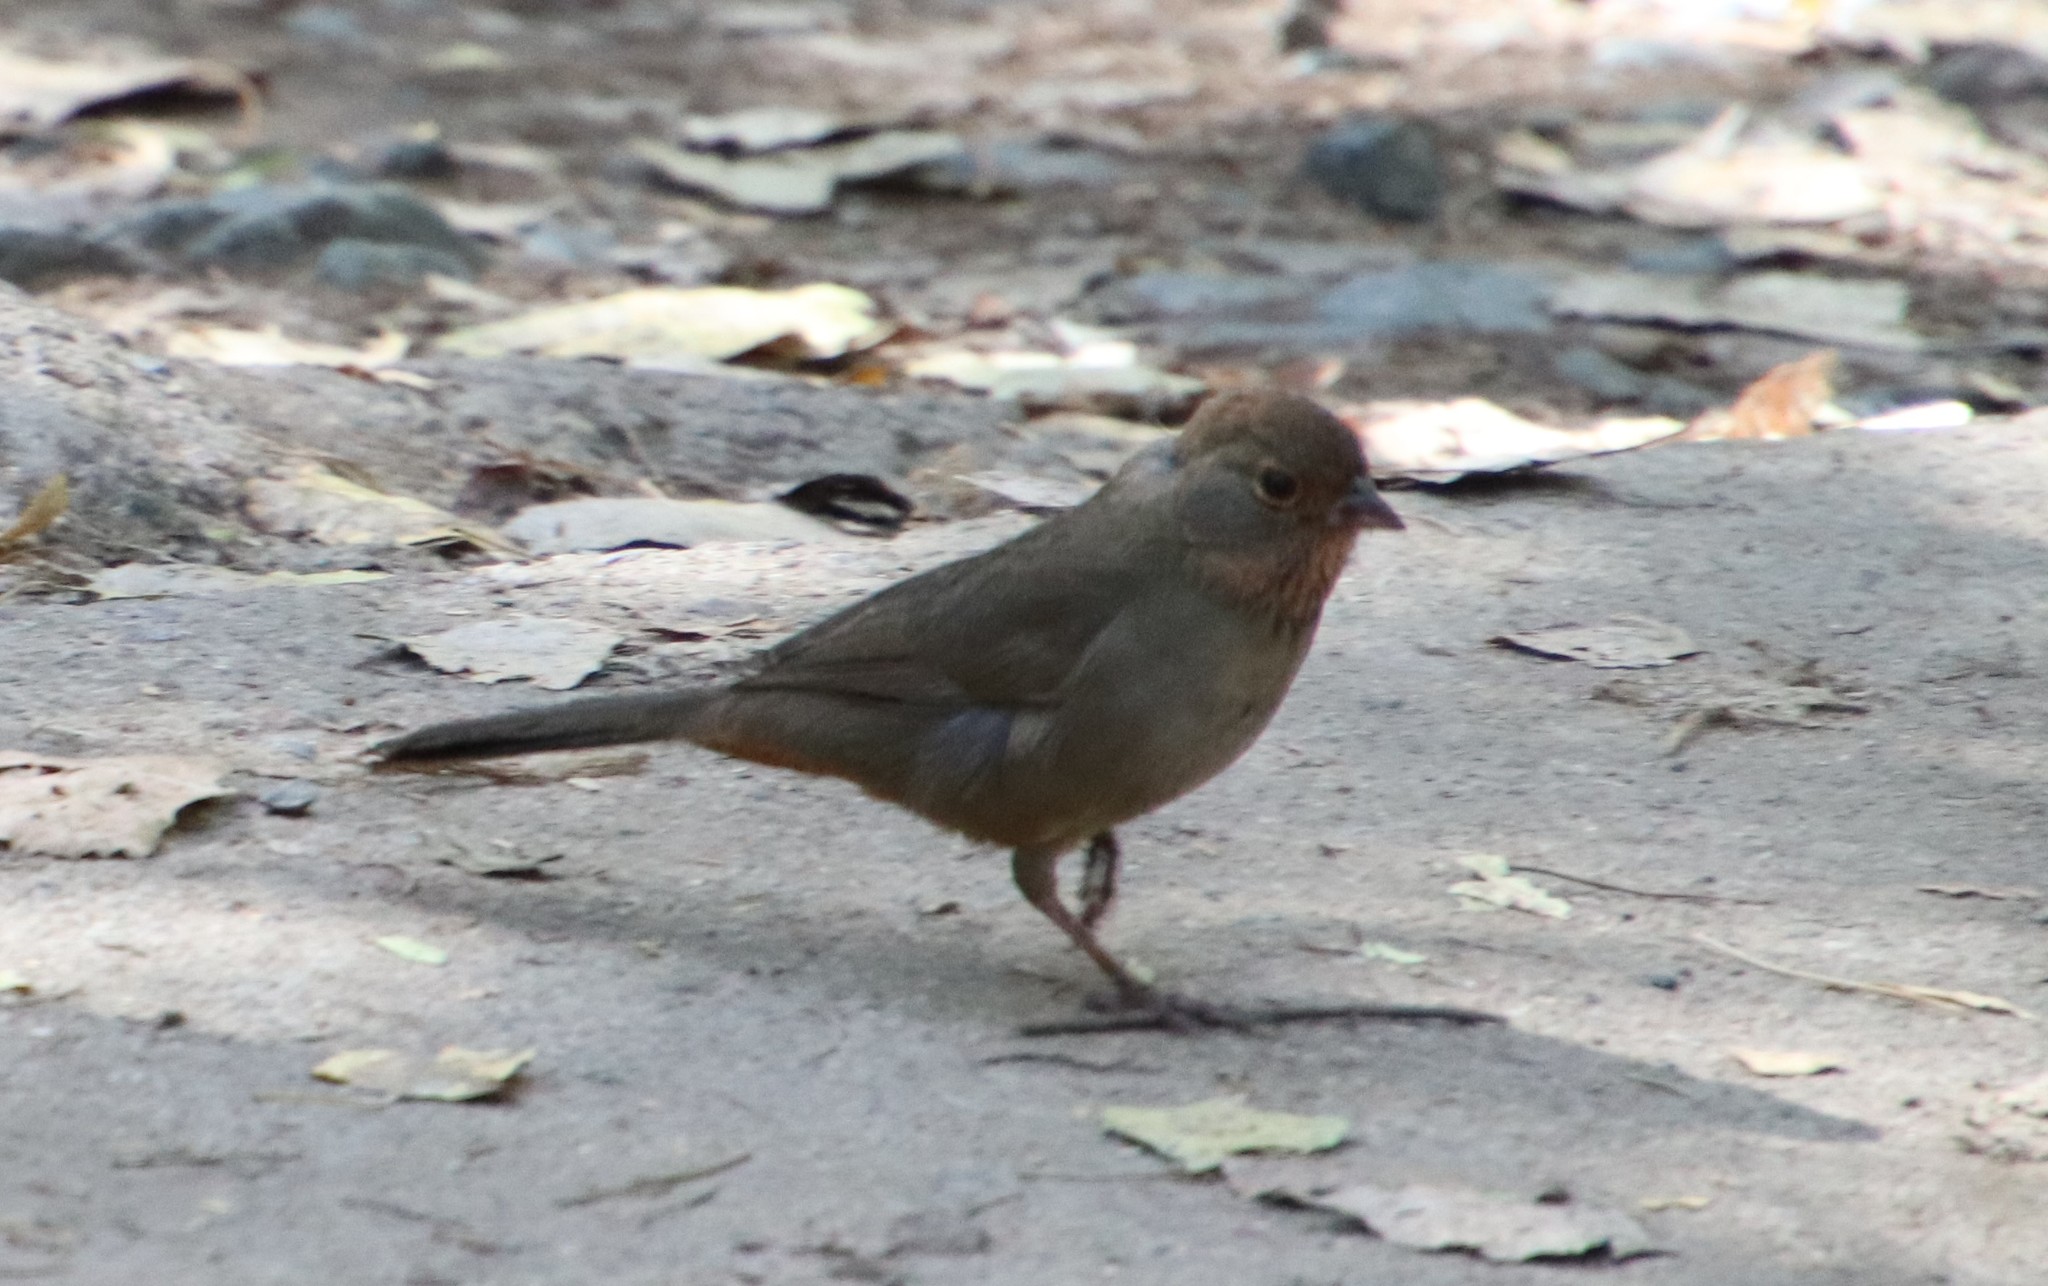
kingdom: Animalia
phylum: Chordata
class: Aves
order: Passeriformes
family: Passerellidae
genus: Melozone
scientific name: Melozone crissalis
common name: California towhee
